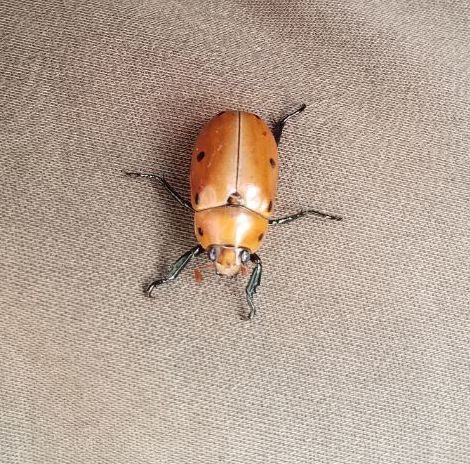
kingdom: Animalia
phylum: Arthropoda
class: Insecta
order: Coleoptera
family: Scarabaeidae
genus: Pelidnota
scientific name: Pelidnota punctata
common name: Grapevine beetle
